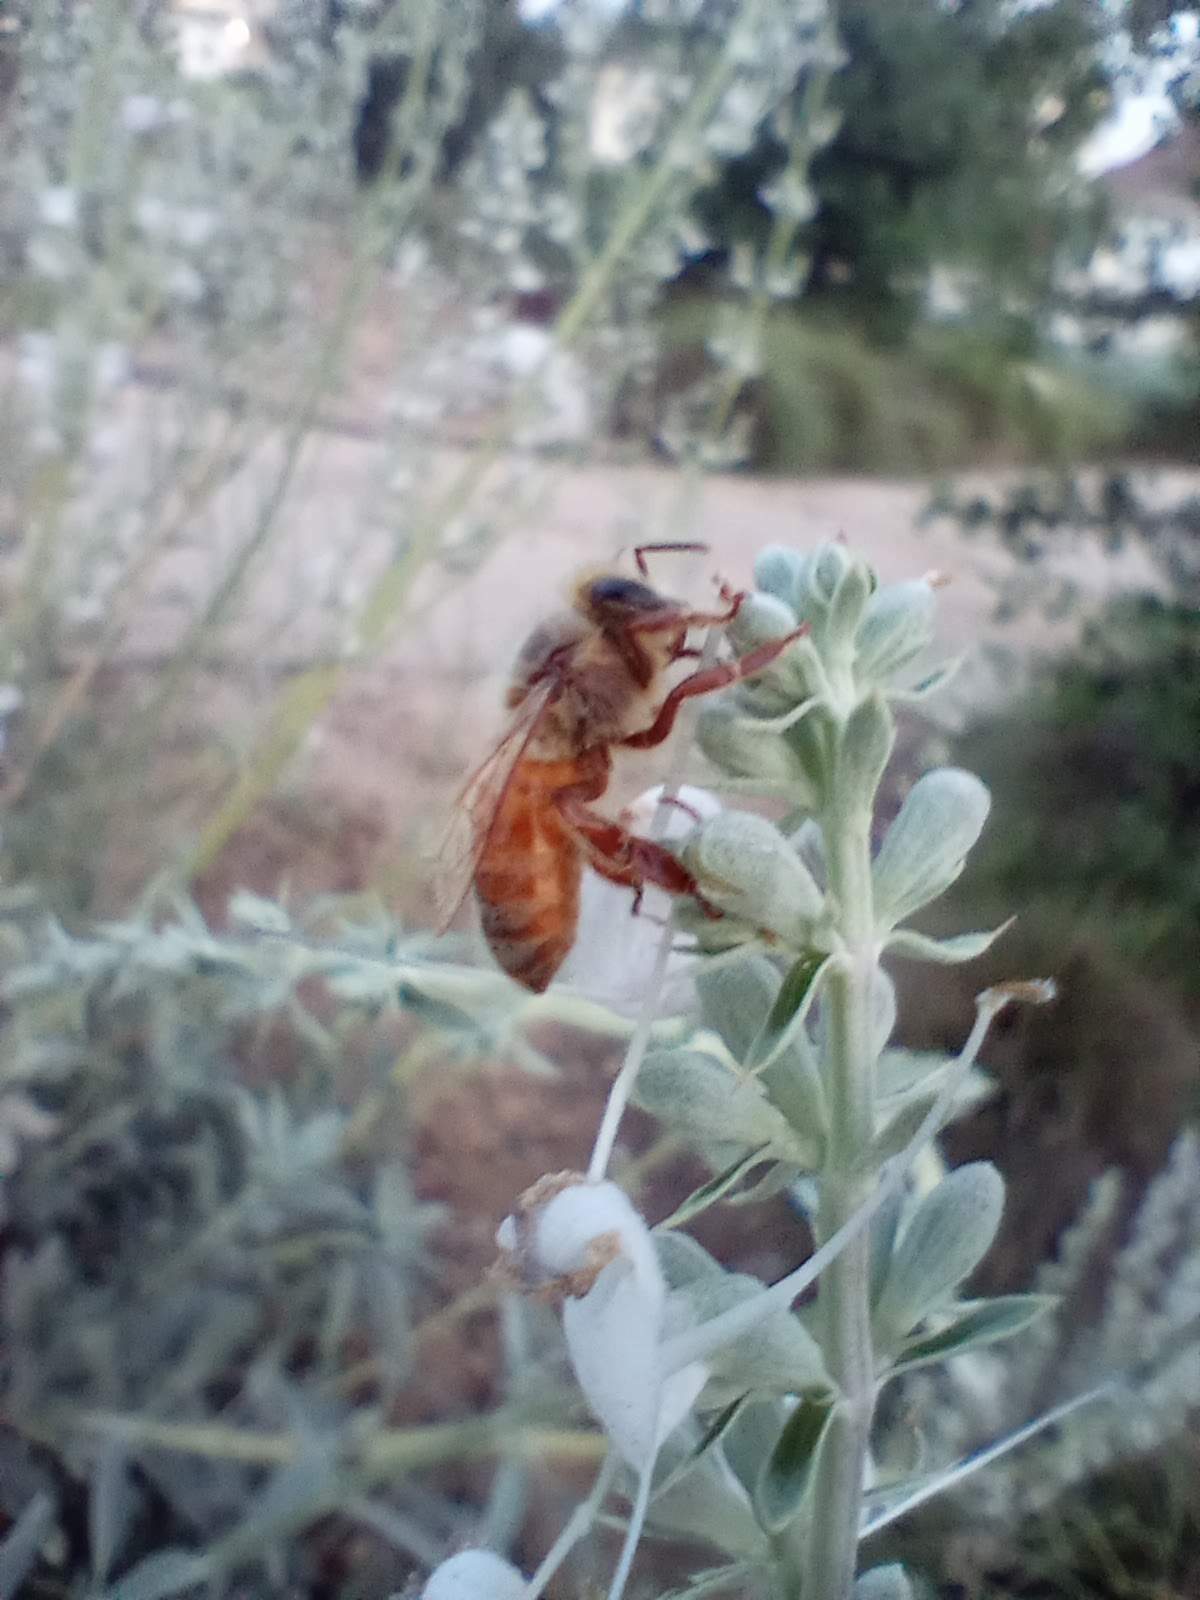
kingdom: Animalia
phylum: Arthropoda
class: Insecta
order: Hymenoptera
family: Apidae
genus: Apis
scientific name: Apis mellifera
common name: Honey bee
